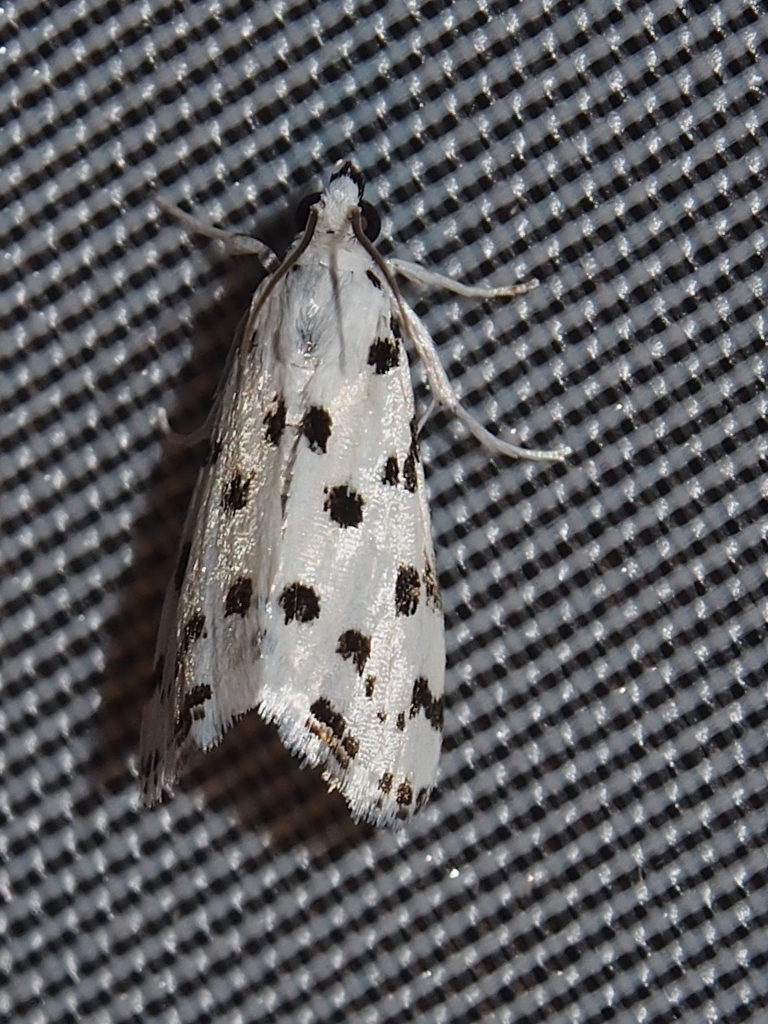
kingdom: Animalia
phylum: Arthropoda
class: Insecta
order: Lepidoptera
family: Crambidae
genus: Eustixia
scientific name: Eustixia pupula
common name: American cabbage pearl
